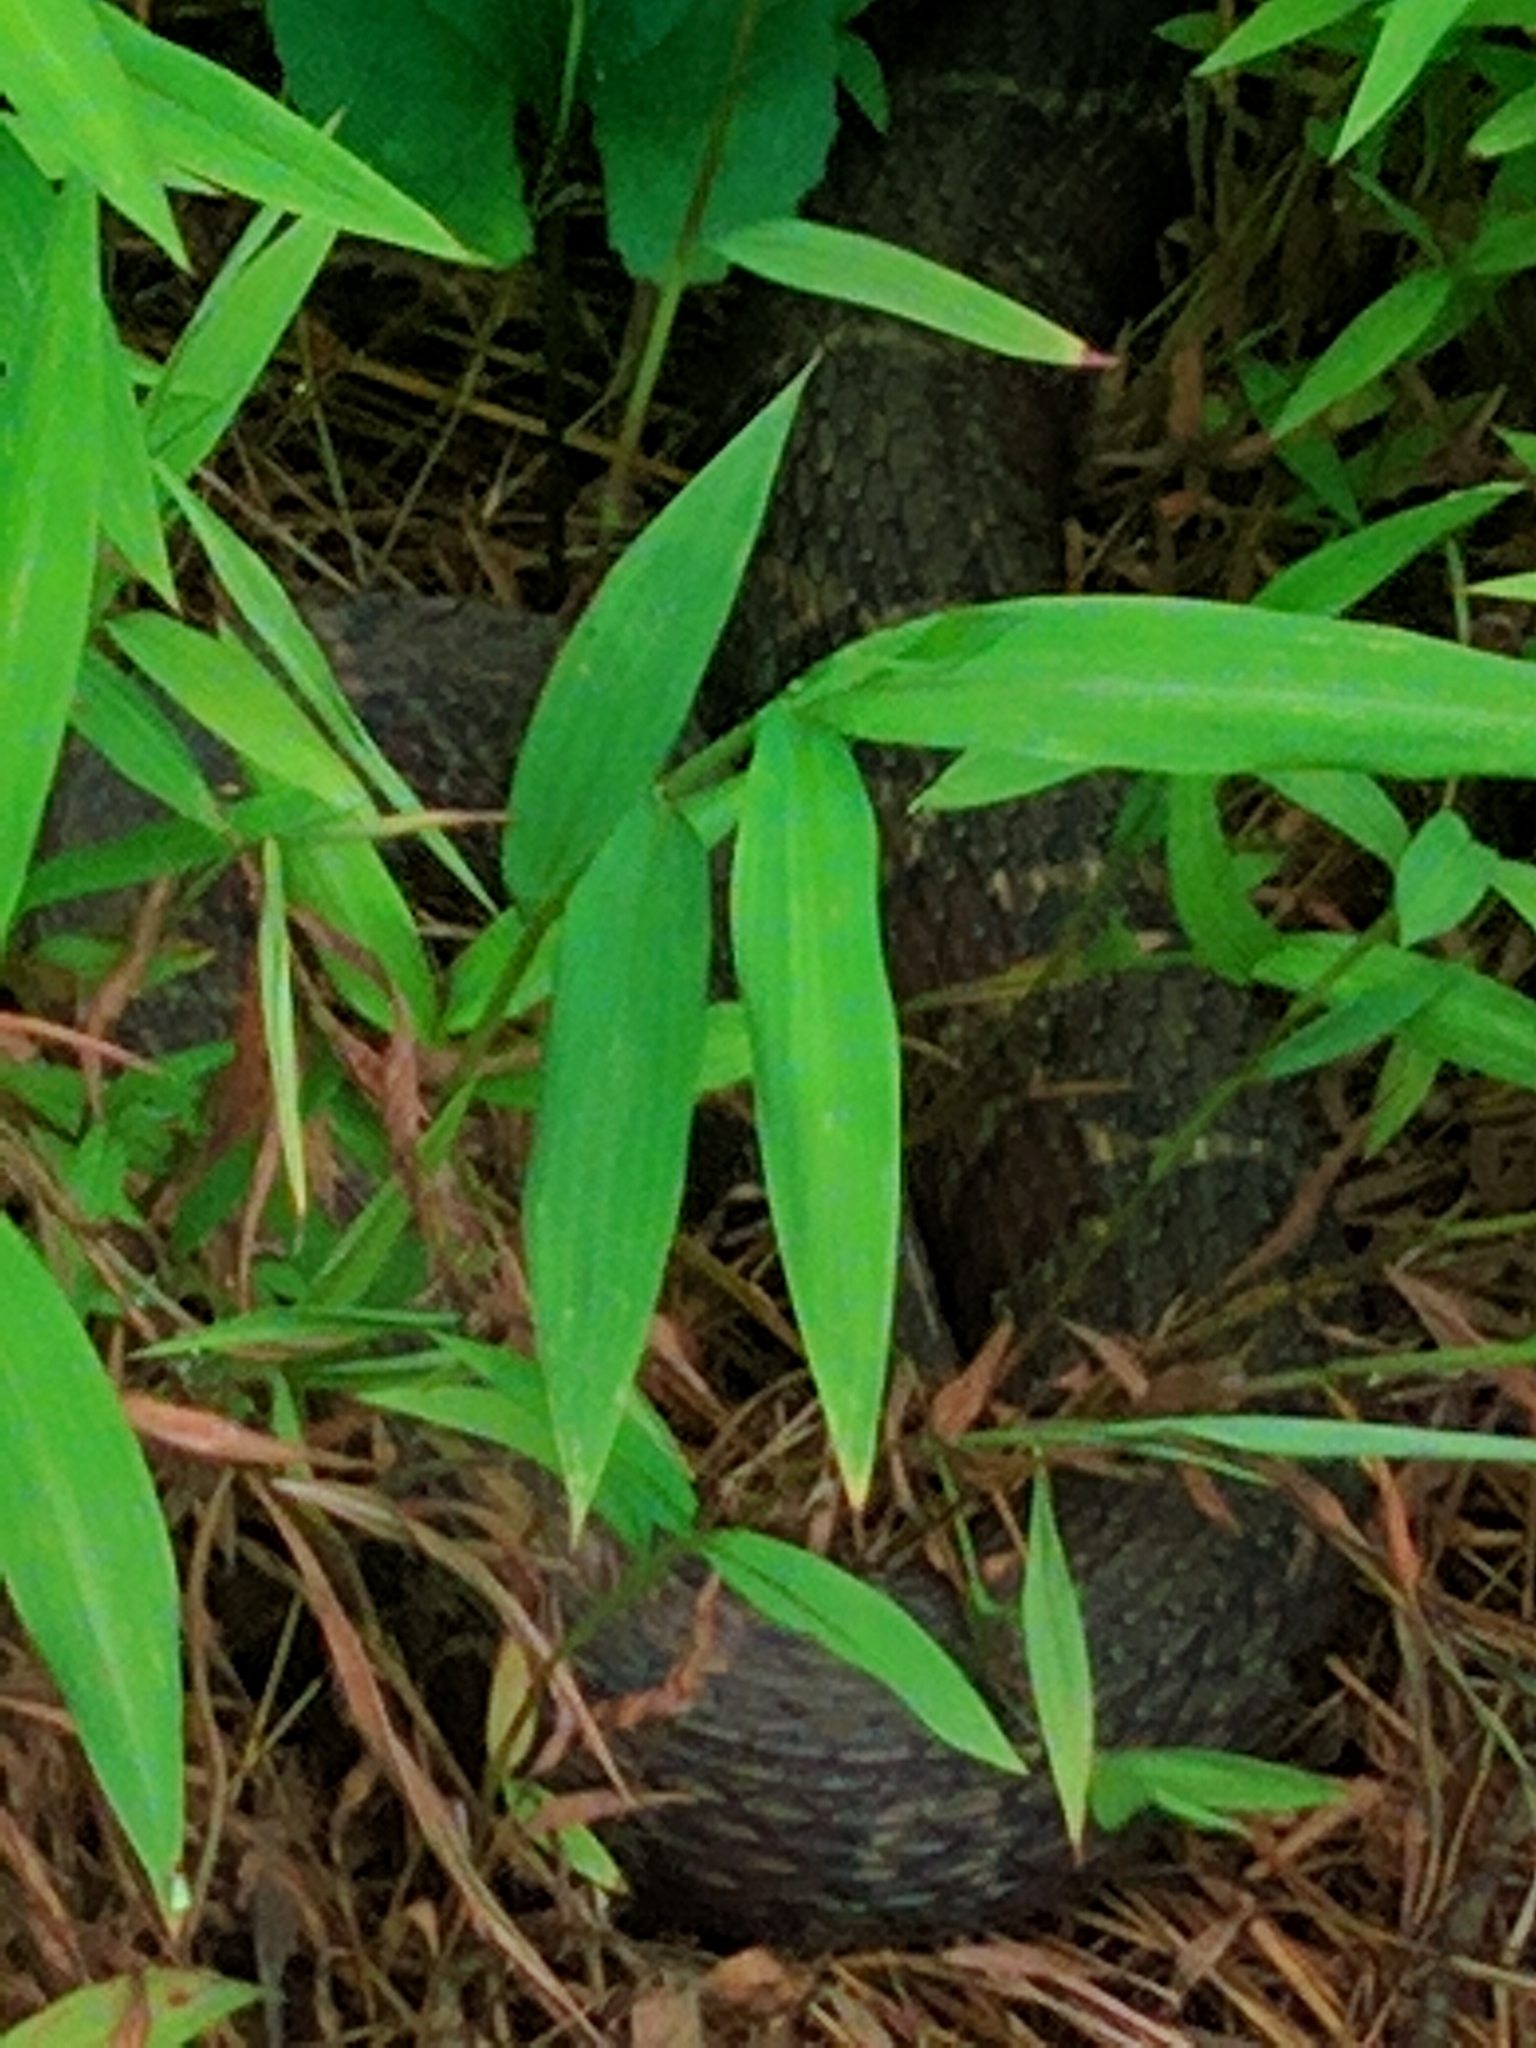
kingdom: Animalia
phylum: Chordata
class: Squamata
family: Colubridae
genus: Nerodia
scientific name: Nerodia sipedon
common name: Northern water snake
